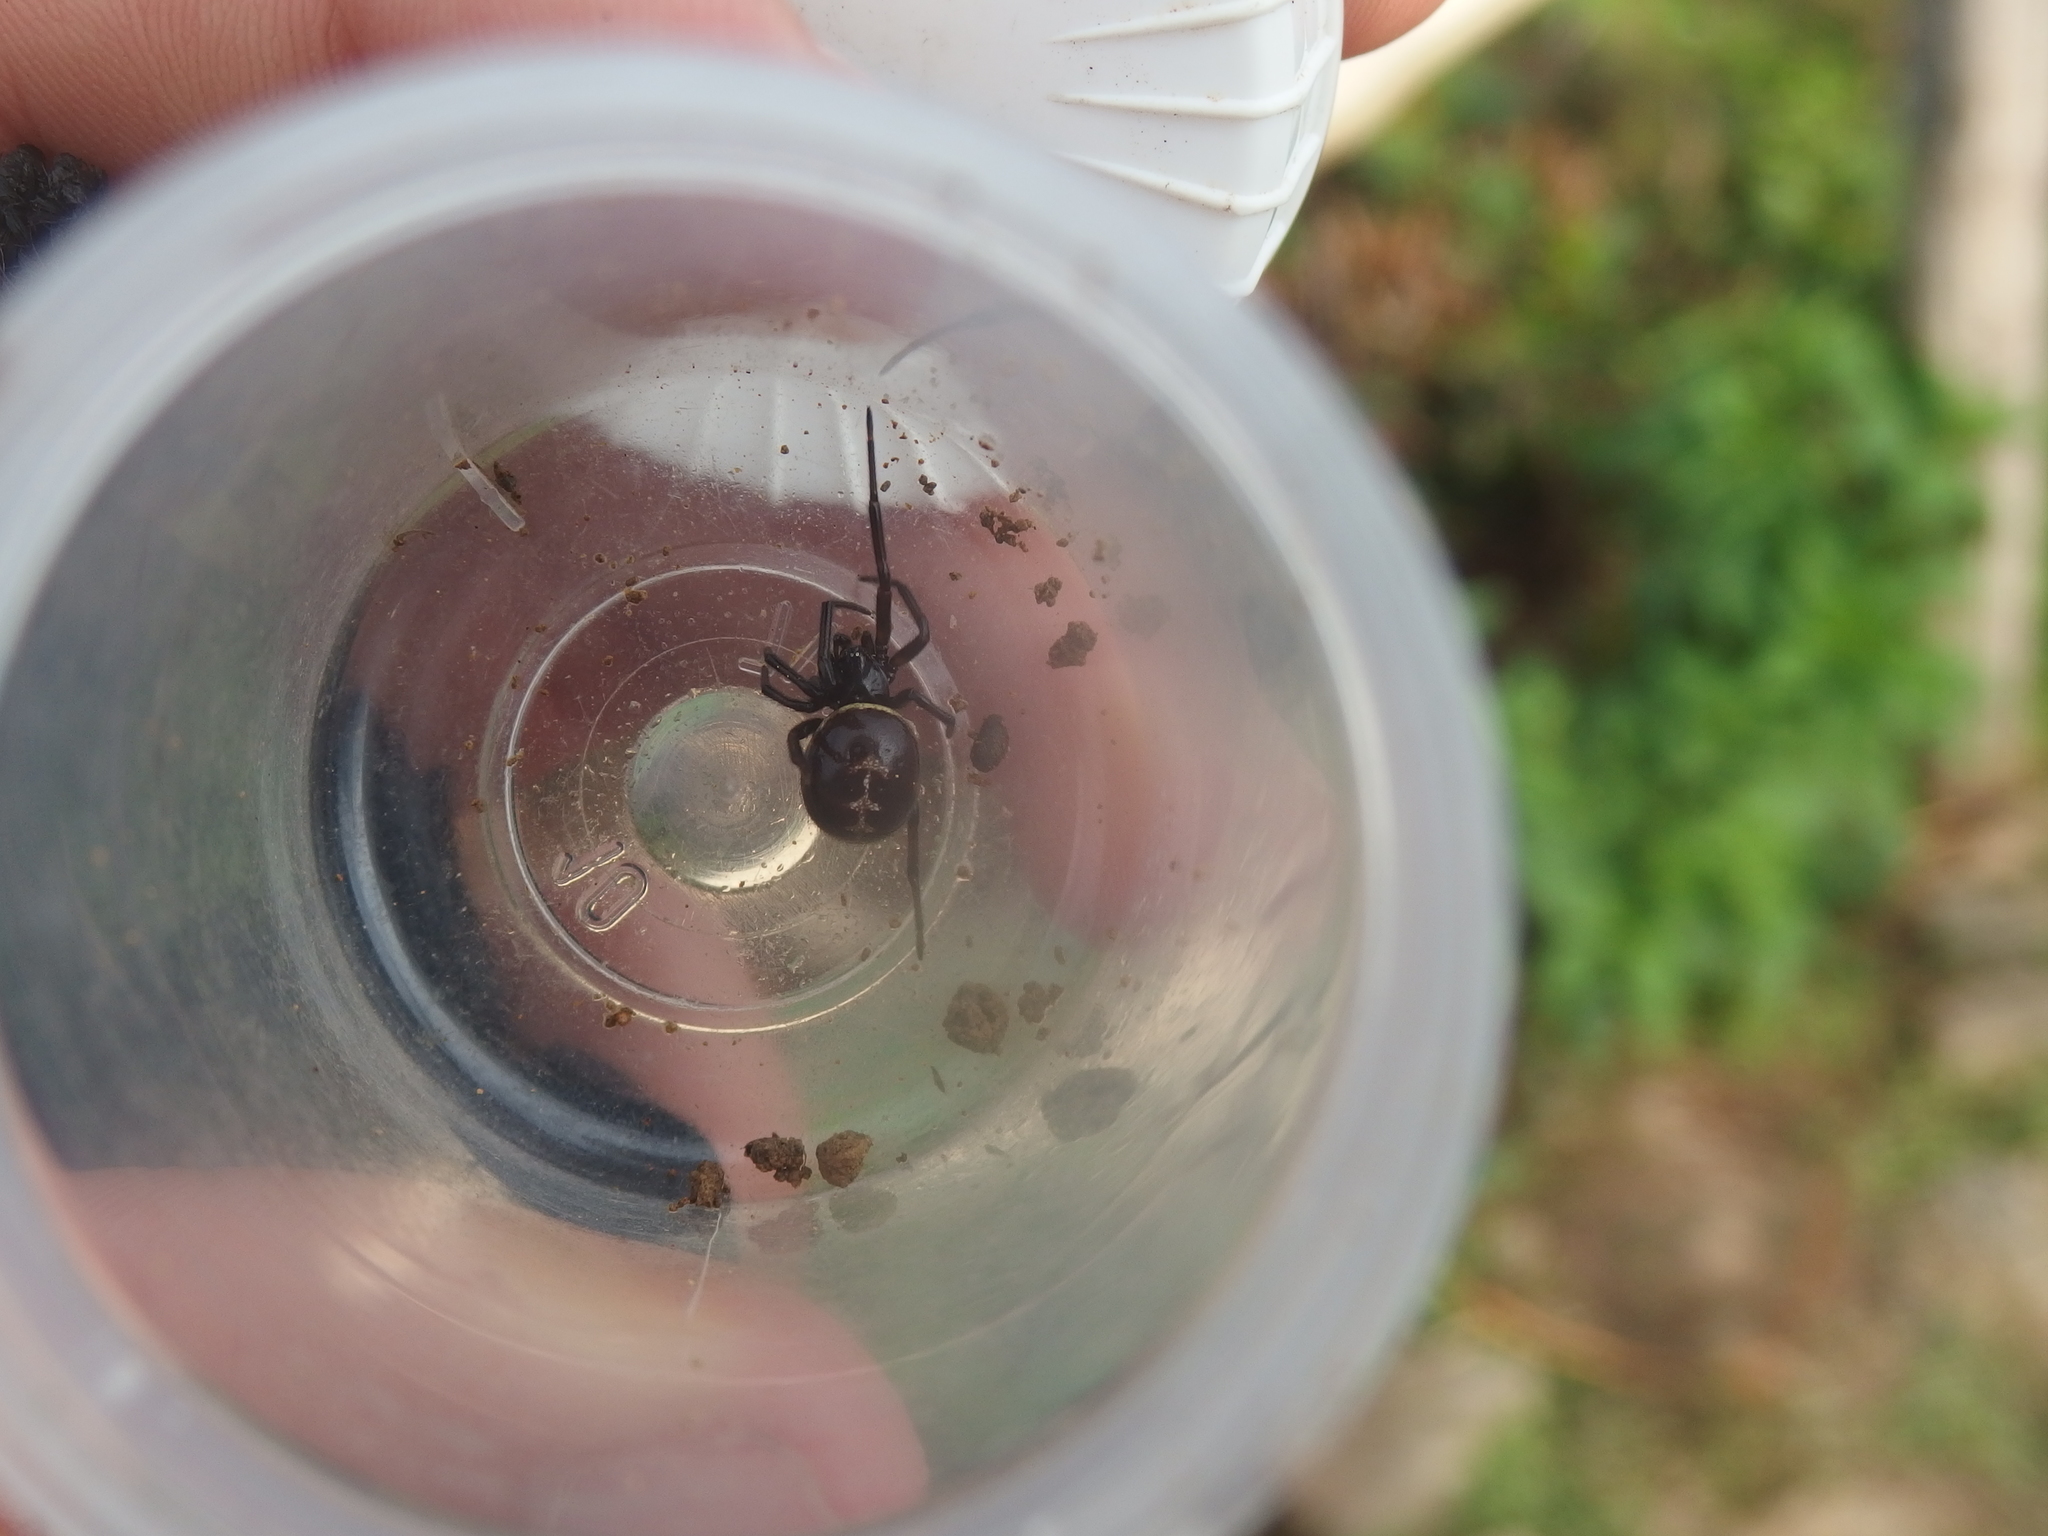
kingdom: Animalia
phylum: Arthropoda
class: Arachnida
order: Araneae
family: Theridiidae
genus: Steatoda
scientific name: Steatoda paykulliana
